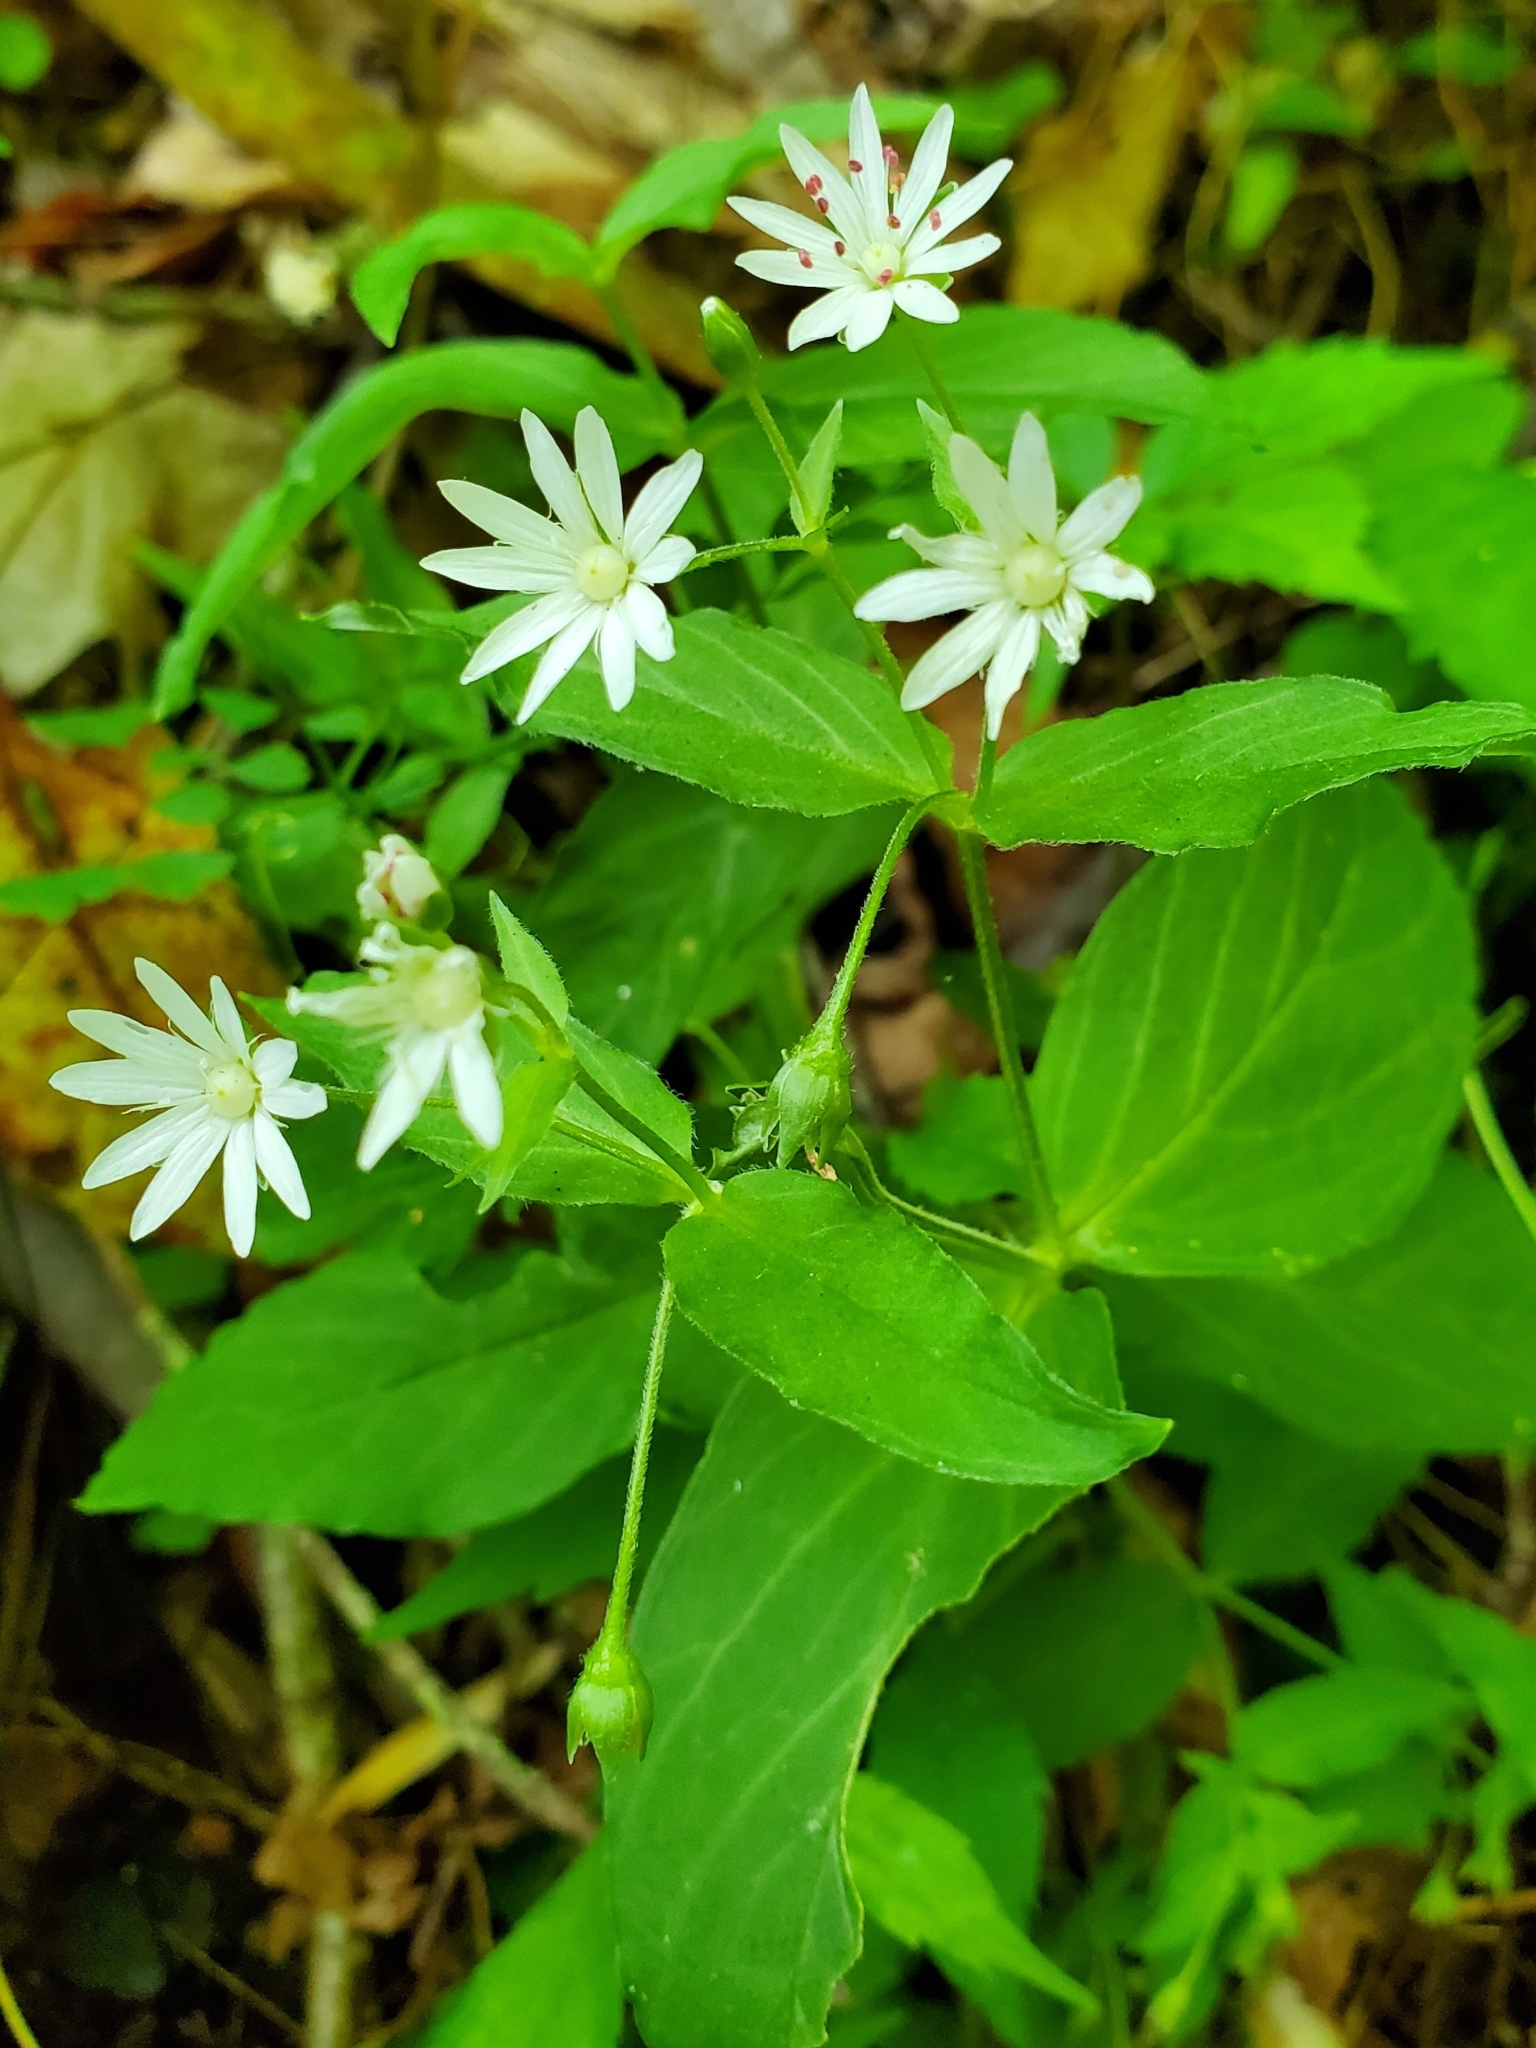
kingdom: Plantae
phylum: Tracheophyta
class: Magnoliopsida
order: Caryophyllales
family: Caryophyllaceae
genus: Stellaria
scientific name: Stellaria pubera
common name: Star chickweed
